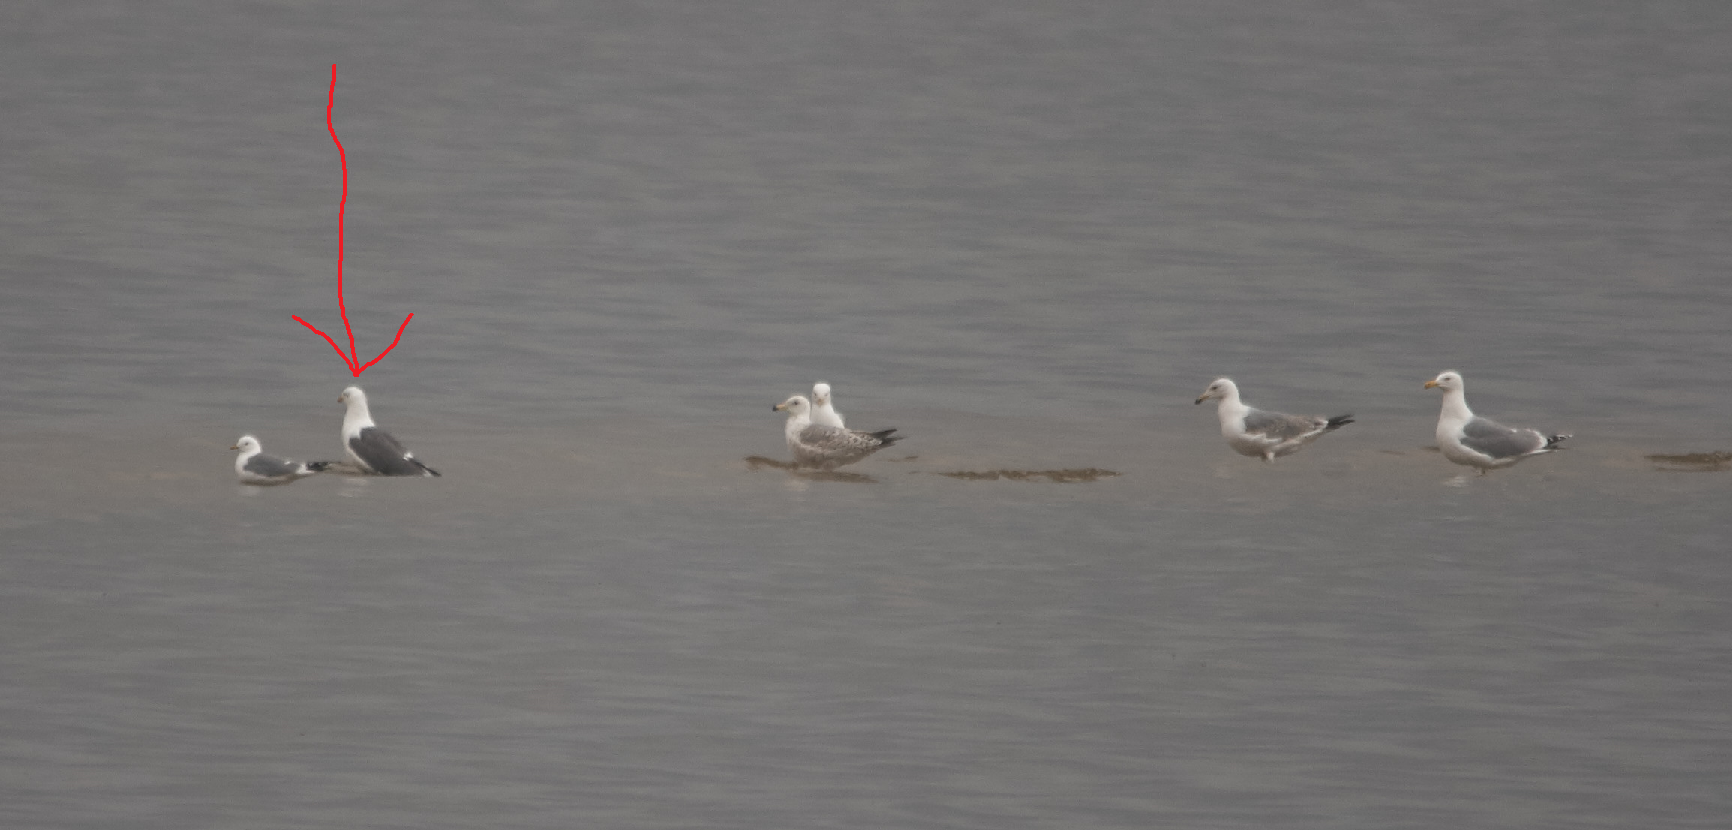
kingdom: Animalia
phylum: Chordata
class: Aves
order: Charadriiformes
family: Laridae
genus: Larus
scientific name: Larus fuscus
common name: Lesser black-backed gull
